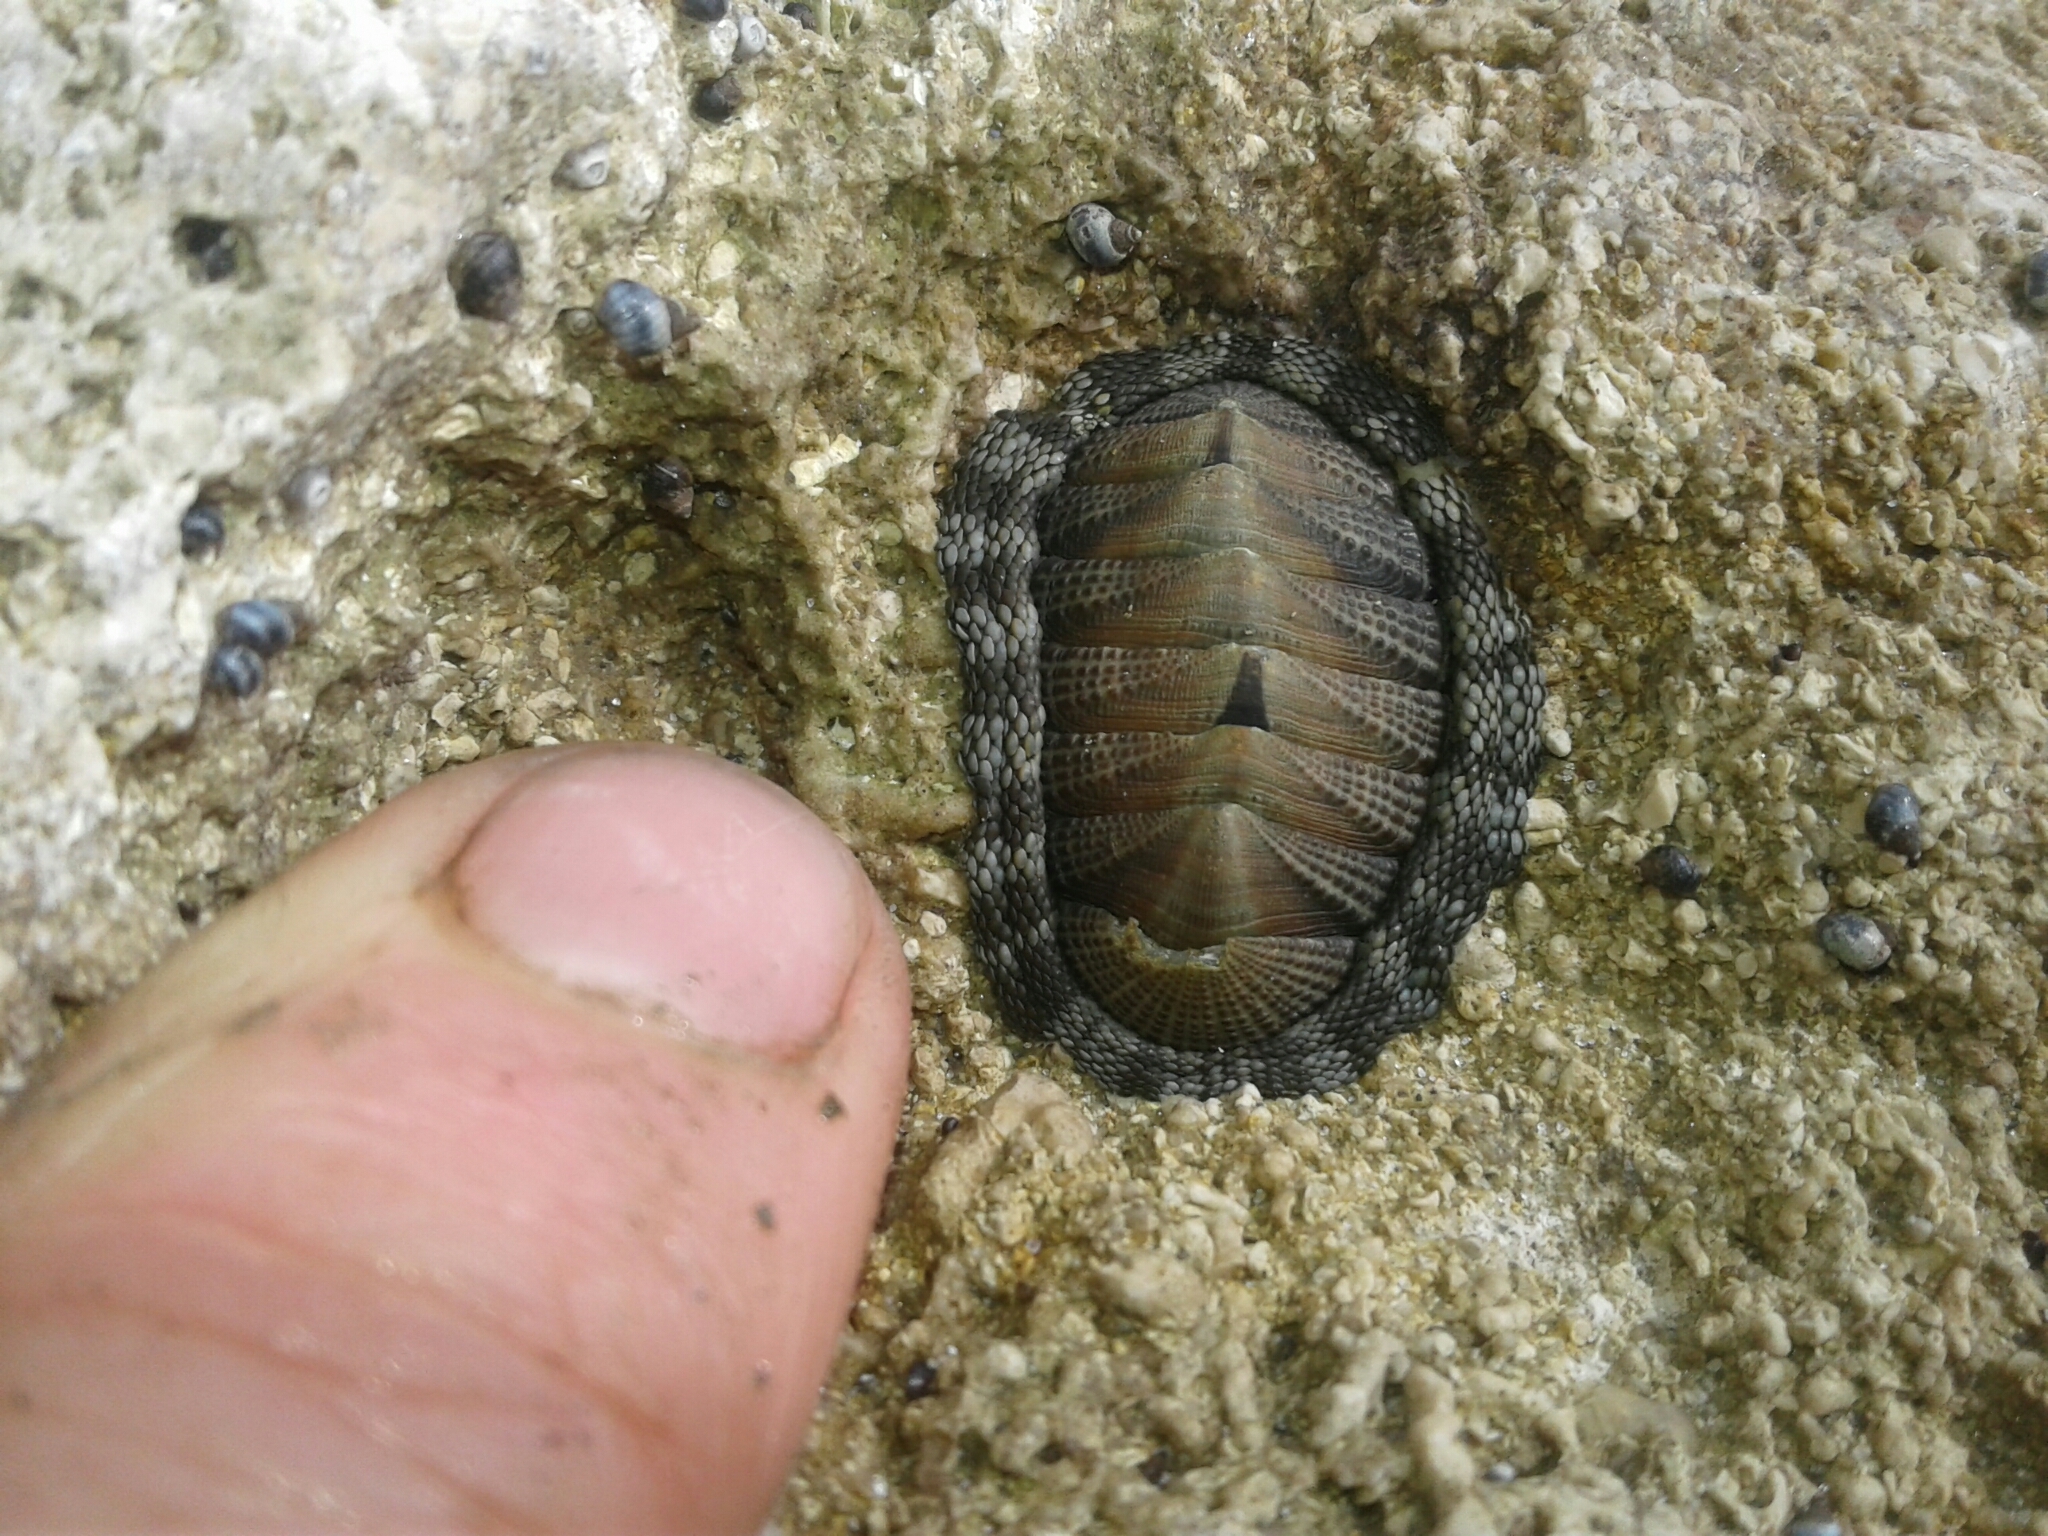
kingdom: Animalia
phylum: Mollusca
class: Polyplacophora
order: Chitonida
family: Chitonidae
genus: Sypharochiton
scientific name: Sypharochiton pelliserpentis
